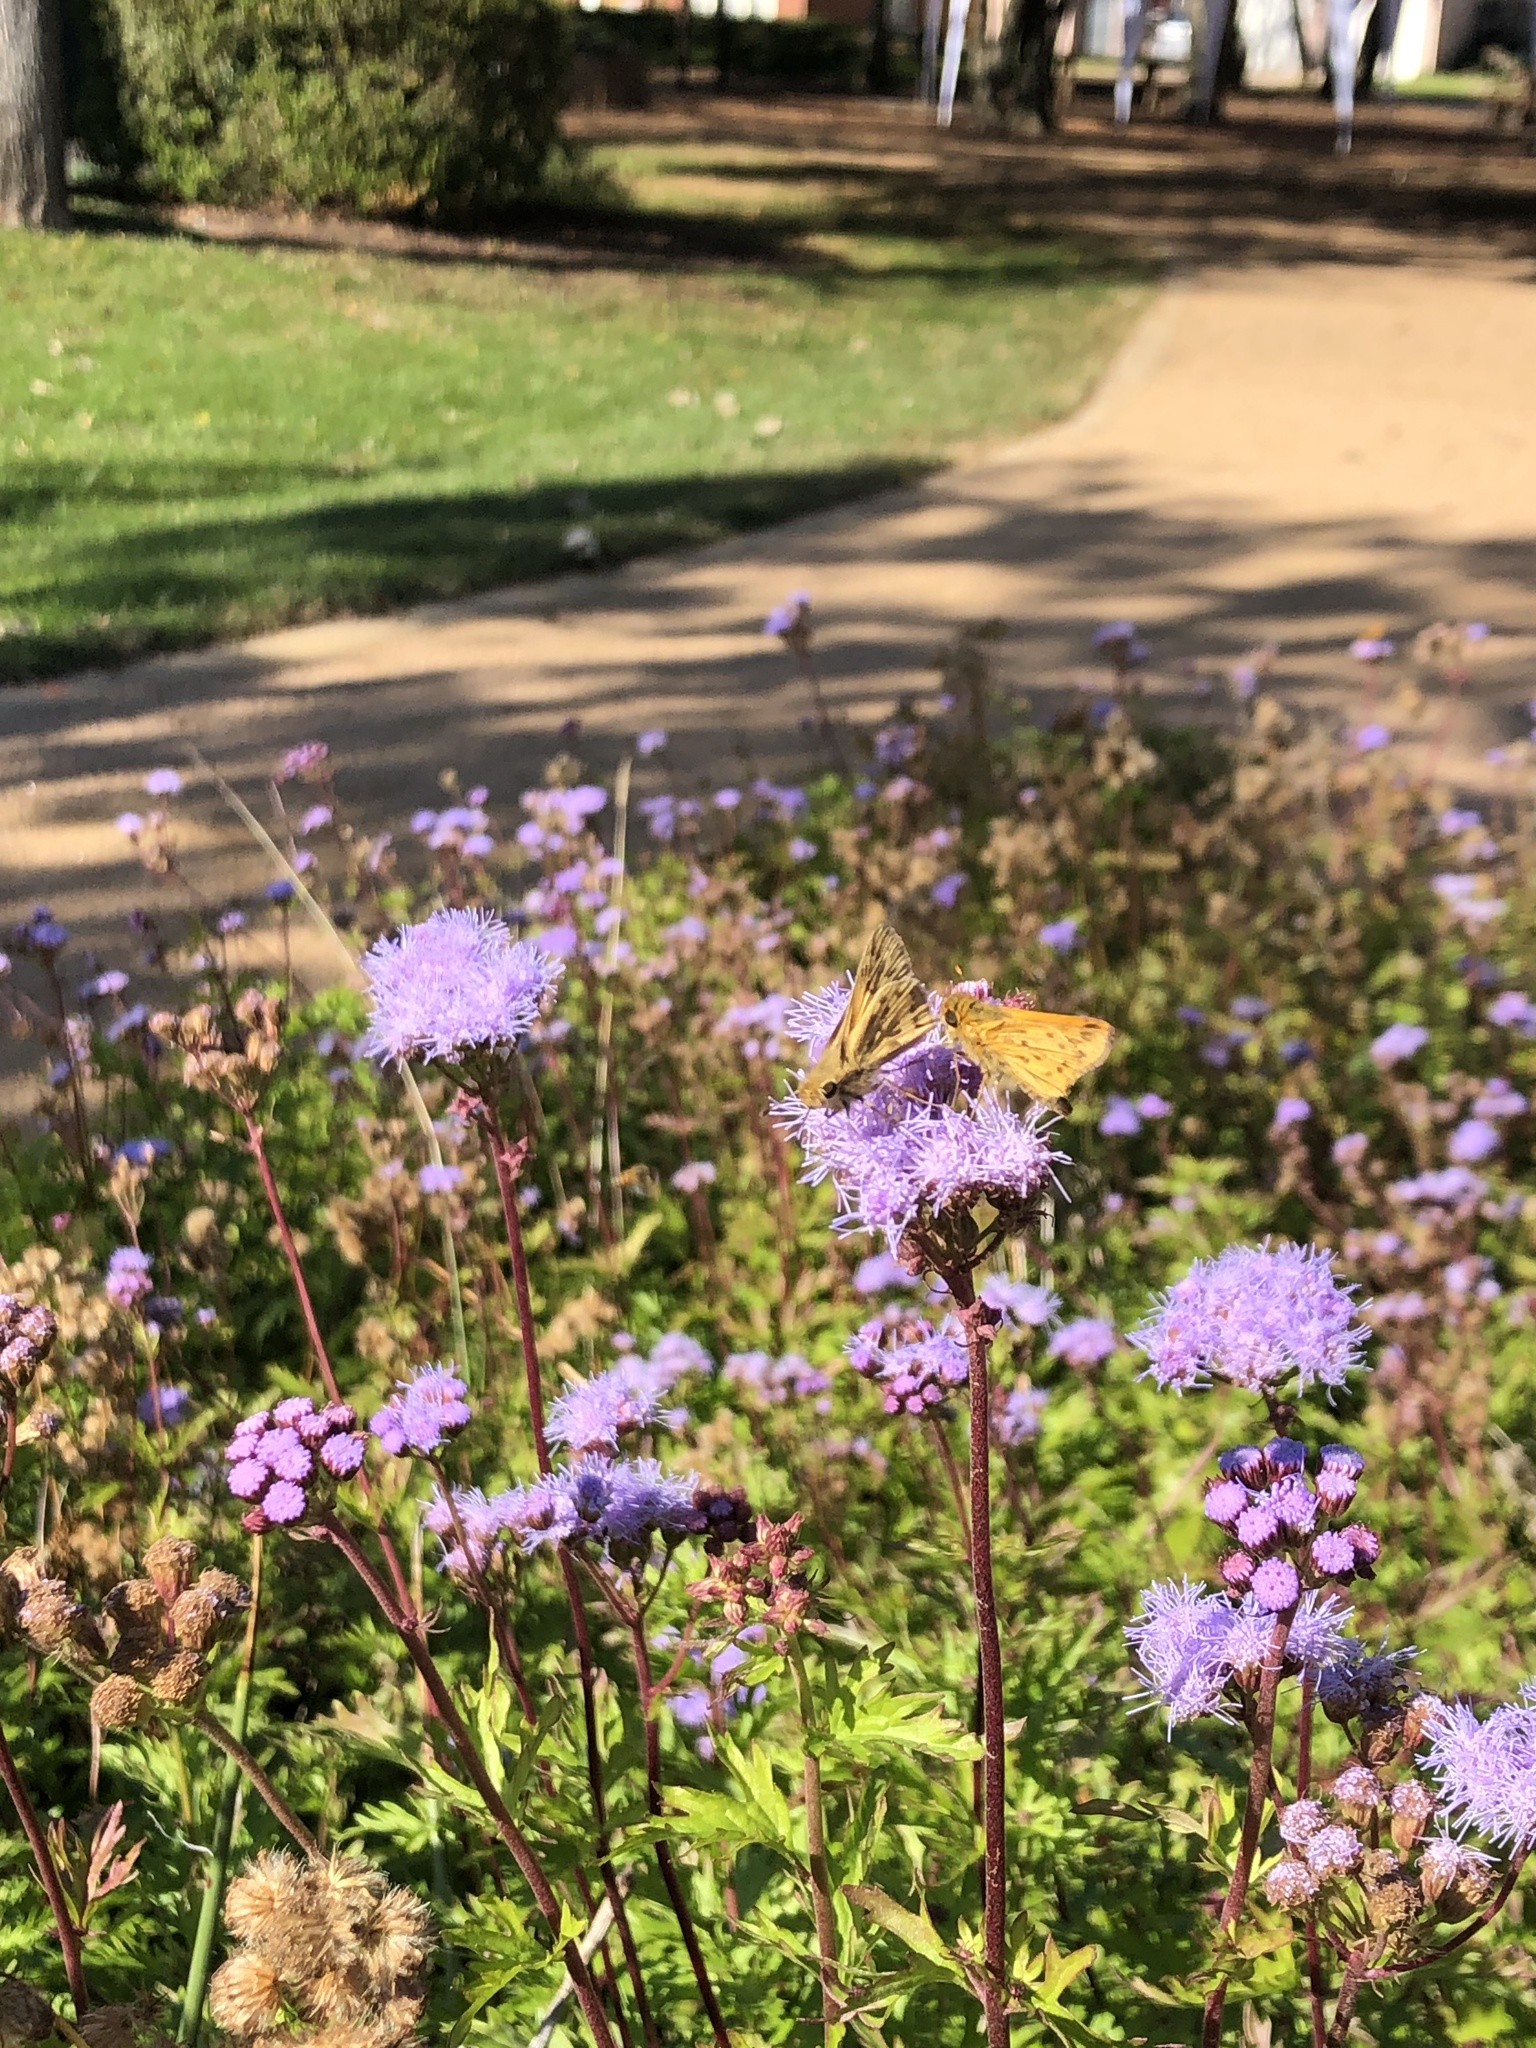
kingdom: Animalia
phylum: Arthropoda
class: Insecta
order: Lepidoptera
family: Hesperiidae
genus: Hylephila
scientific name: Hylephila phyleus
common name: Fiery skipper
